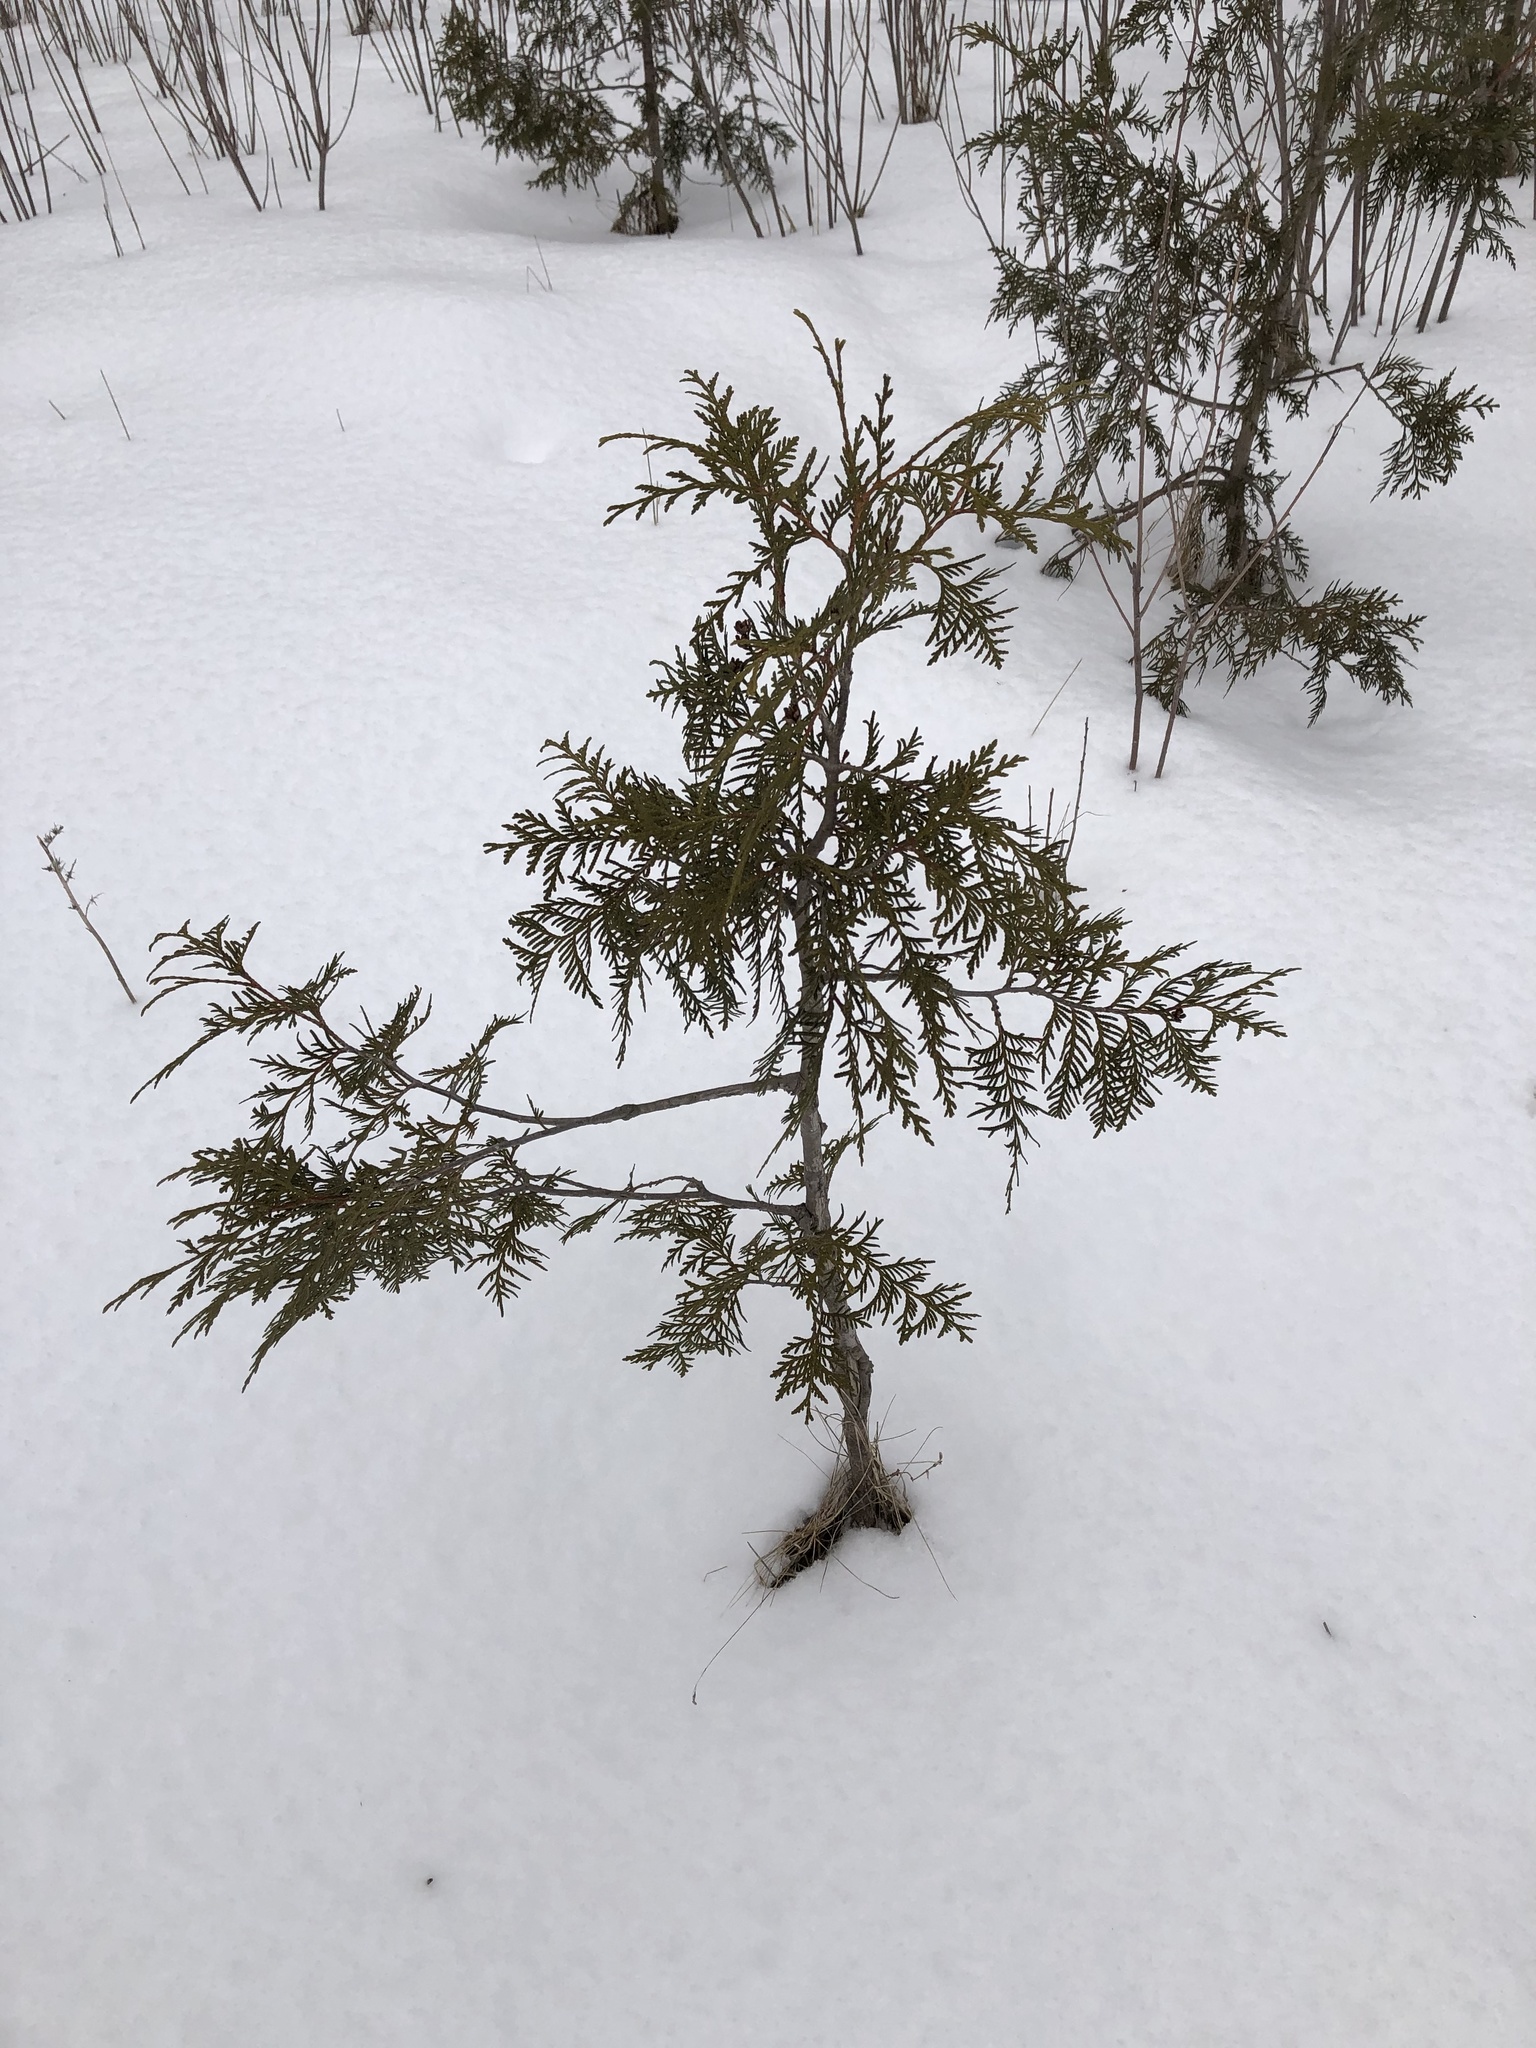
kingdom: Plantae
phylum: Tracheophyta
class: Pinopsida
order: Pinales
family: Cupressaceae
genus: Thuja
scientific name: Thuja occidentalis
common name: Northern white-cedar
